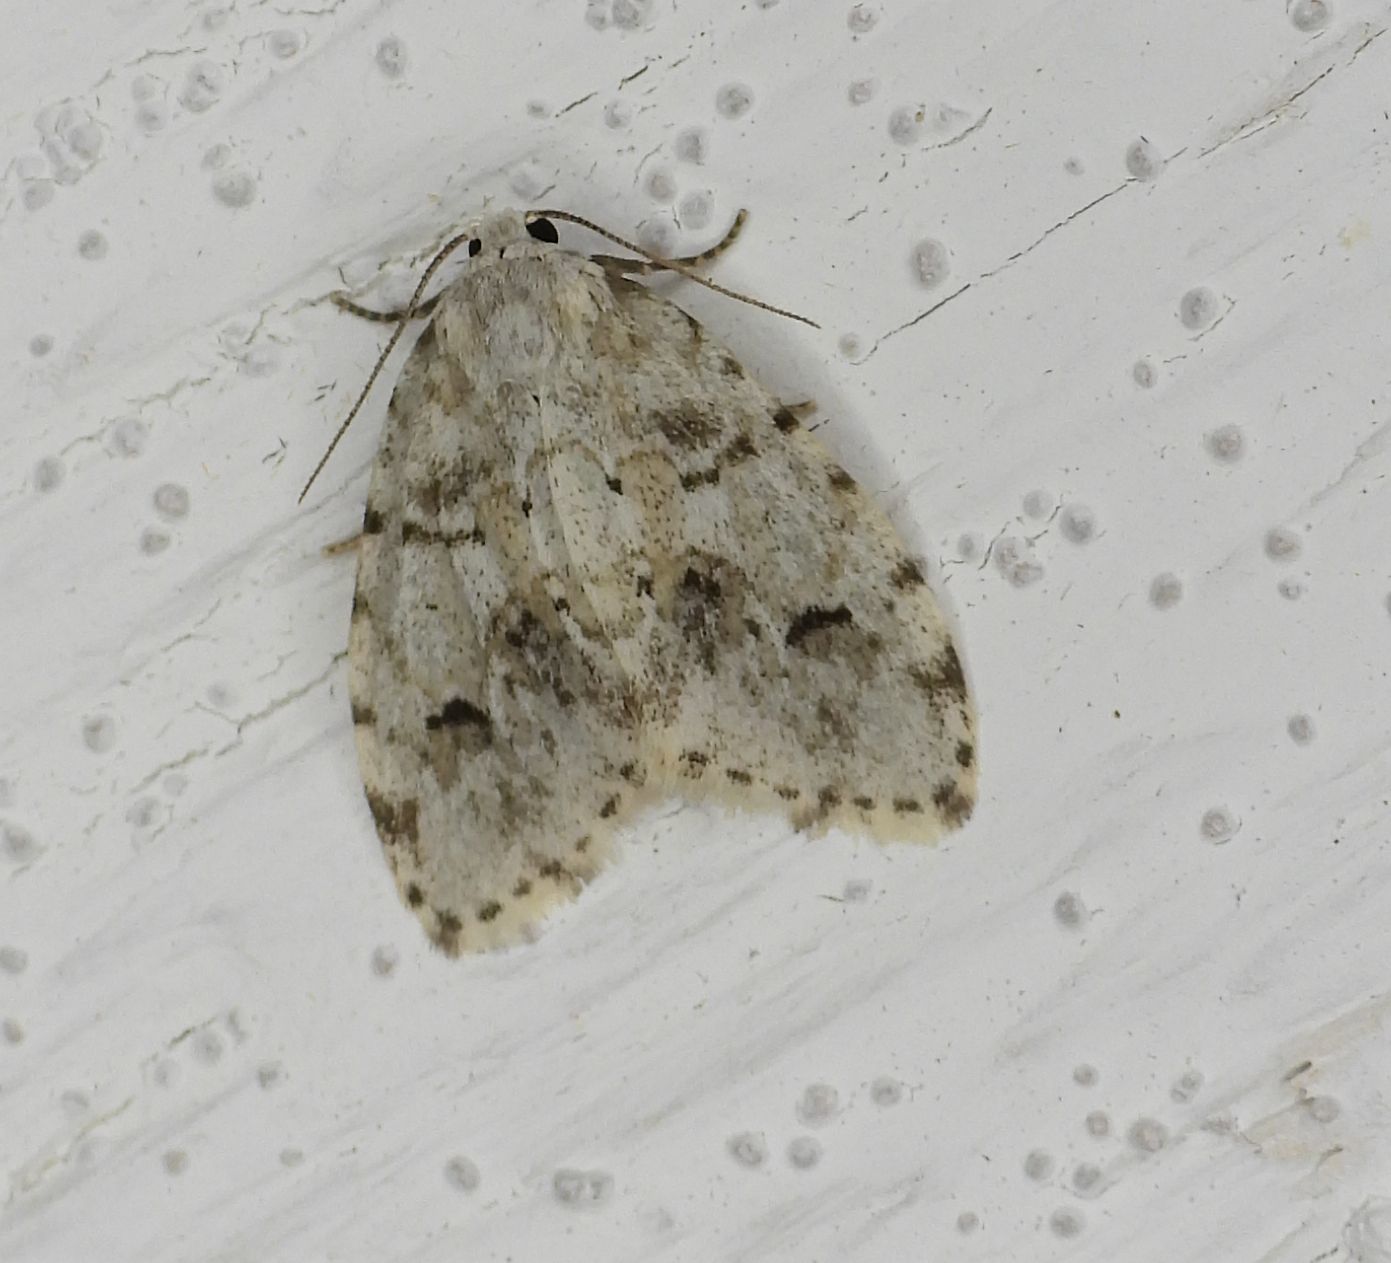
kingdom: Animalia
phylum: Arthropoda
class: Insecta
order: Lepidoptera
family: Erebidae
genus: Clemensia
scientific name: Clemensia albata
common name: Little white lichen moth
